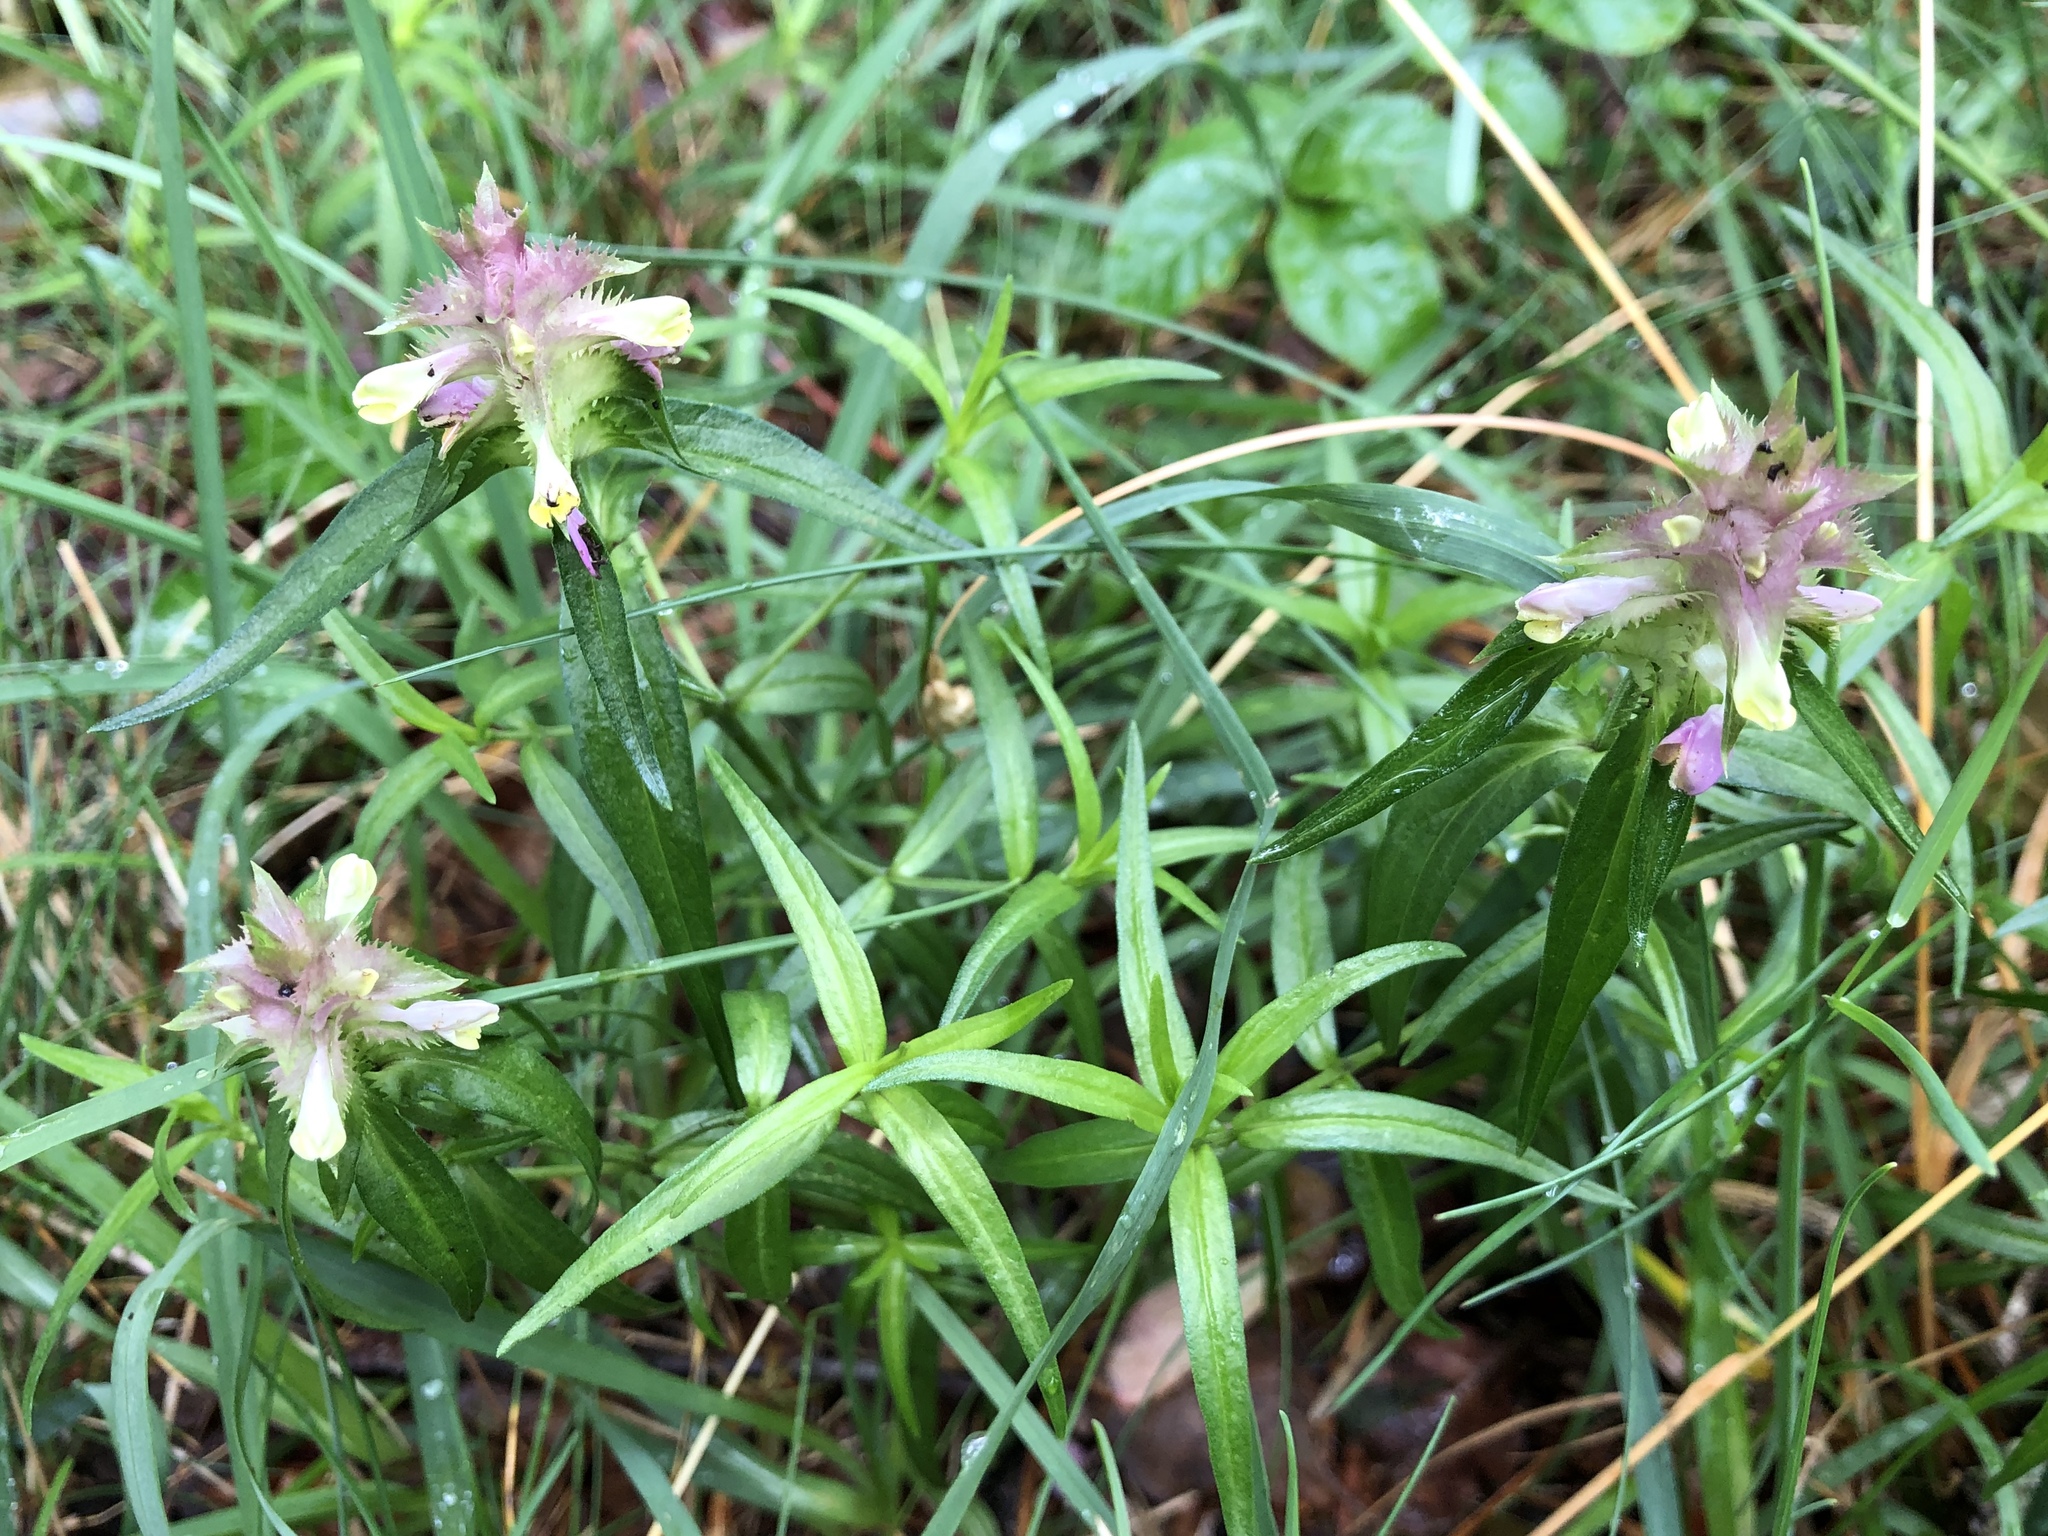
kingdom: Plantae
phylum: Tracheophyta
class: Magnoliopsida
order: Lamiales
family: Orobanchaceae
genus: Melampyrum
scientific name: Melampyrum cristatum
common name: Crested cow-wheat
